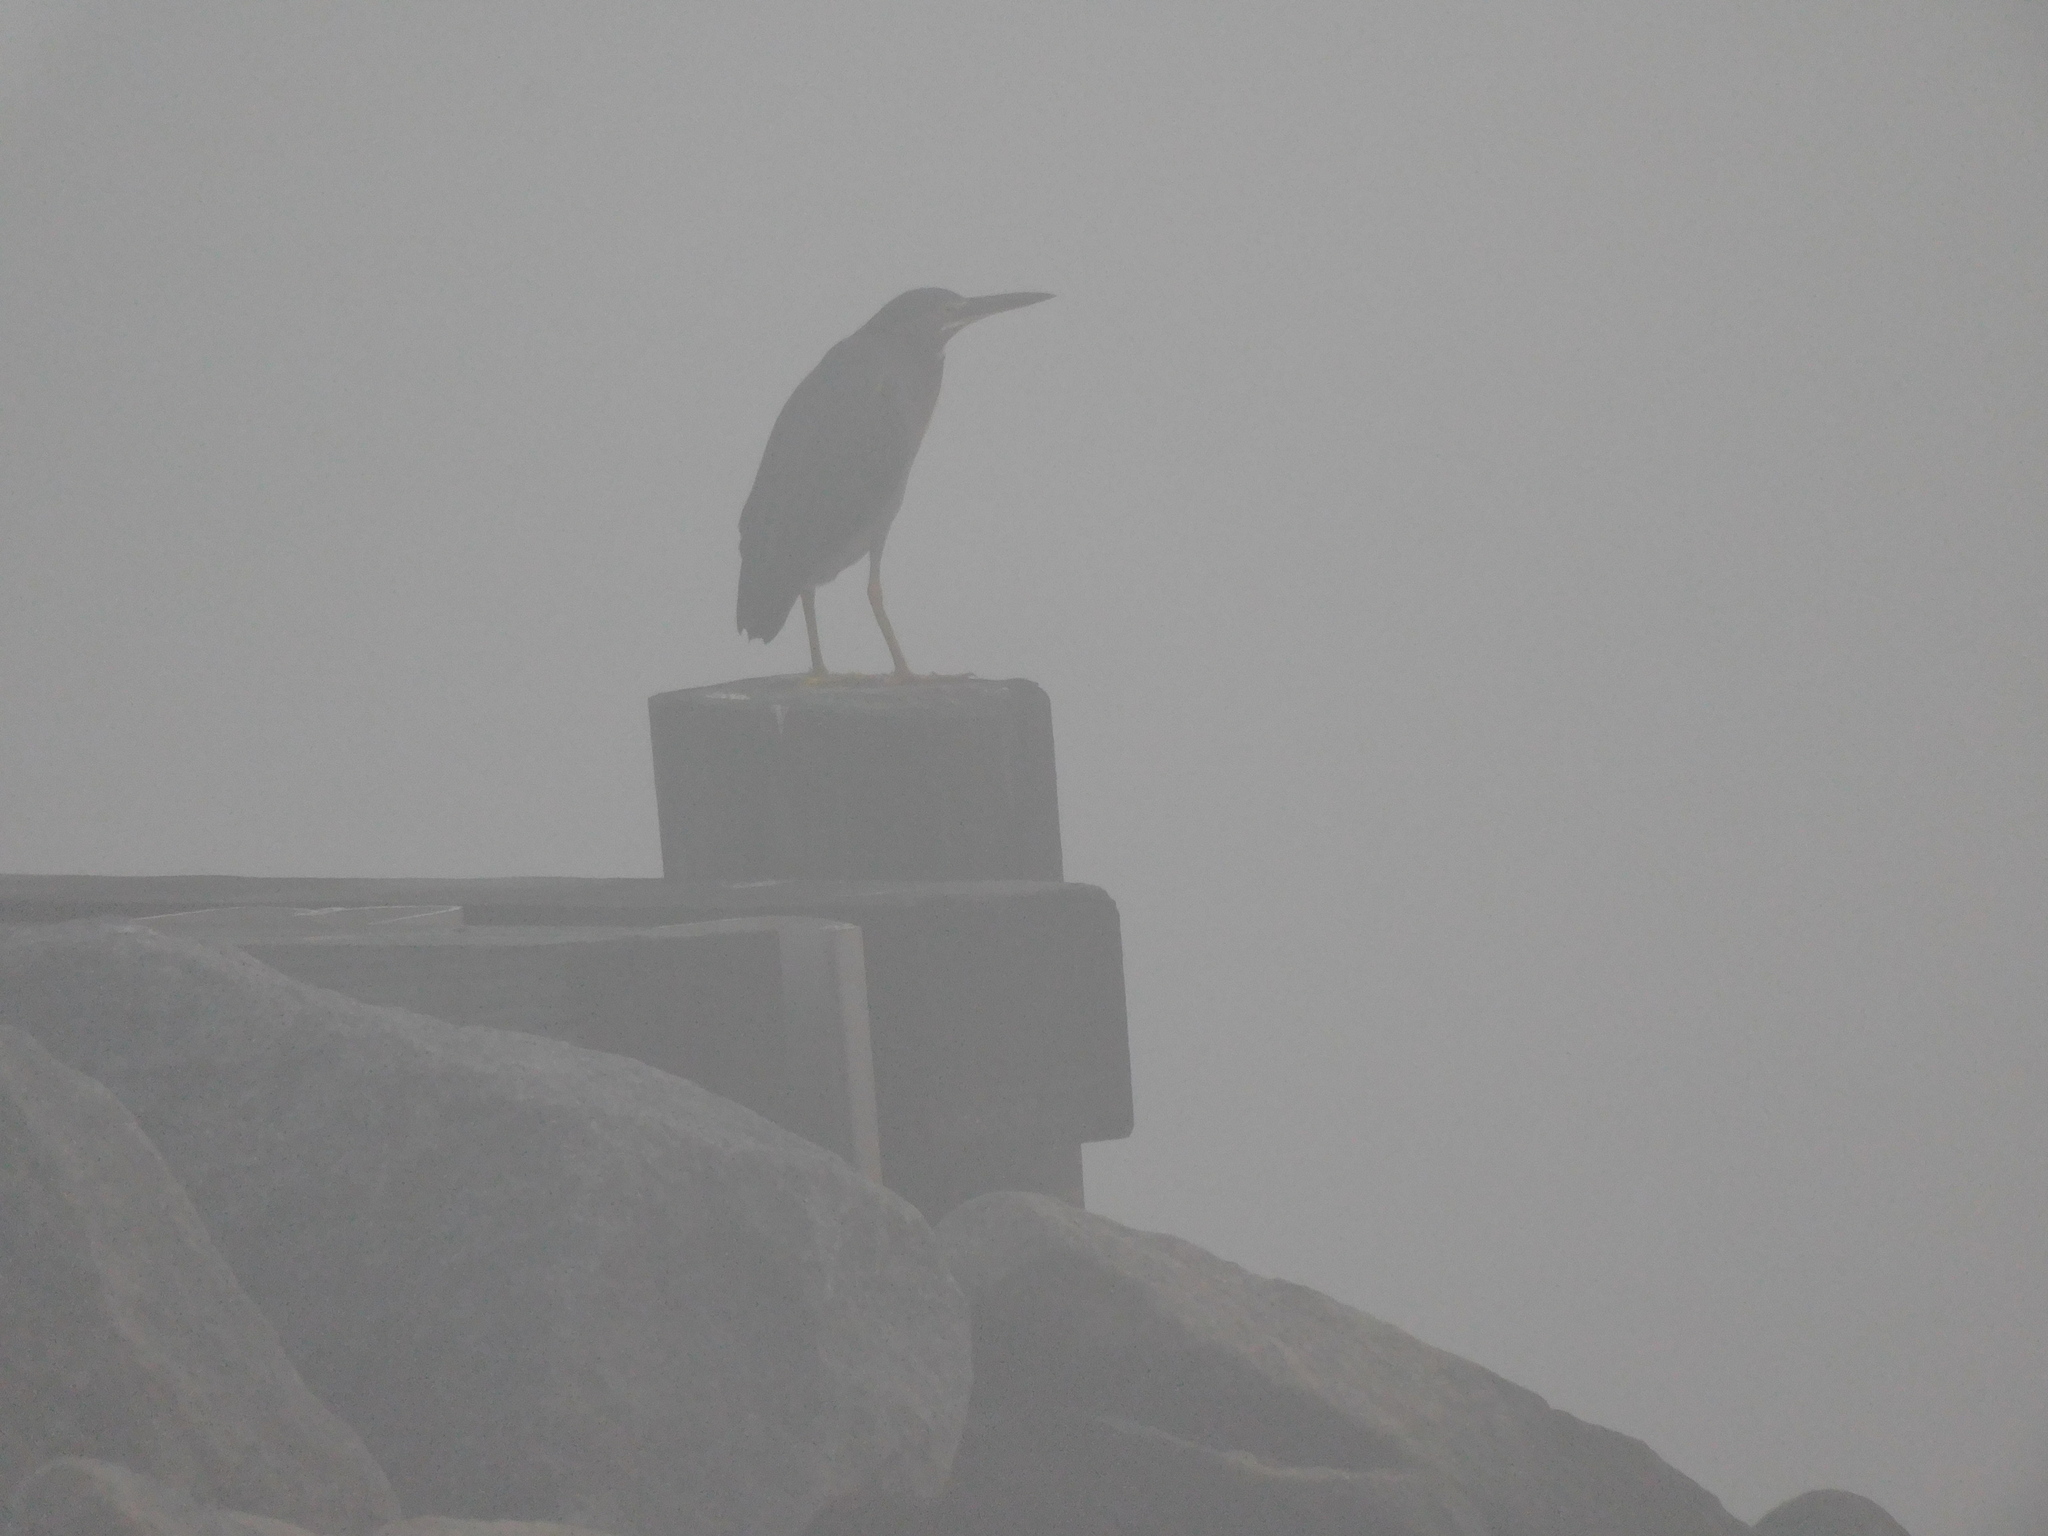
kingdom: Animalia
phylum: Chordata
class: Aves
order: Pelecaniformes
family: Ardeidae
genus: Butorides
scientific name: Butorides virescens
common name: Green heron
